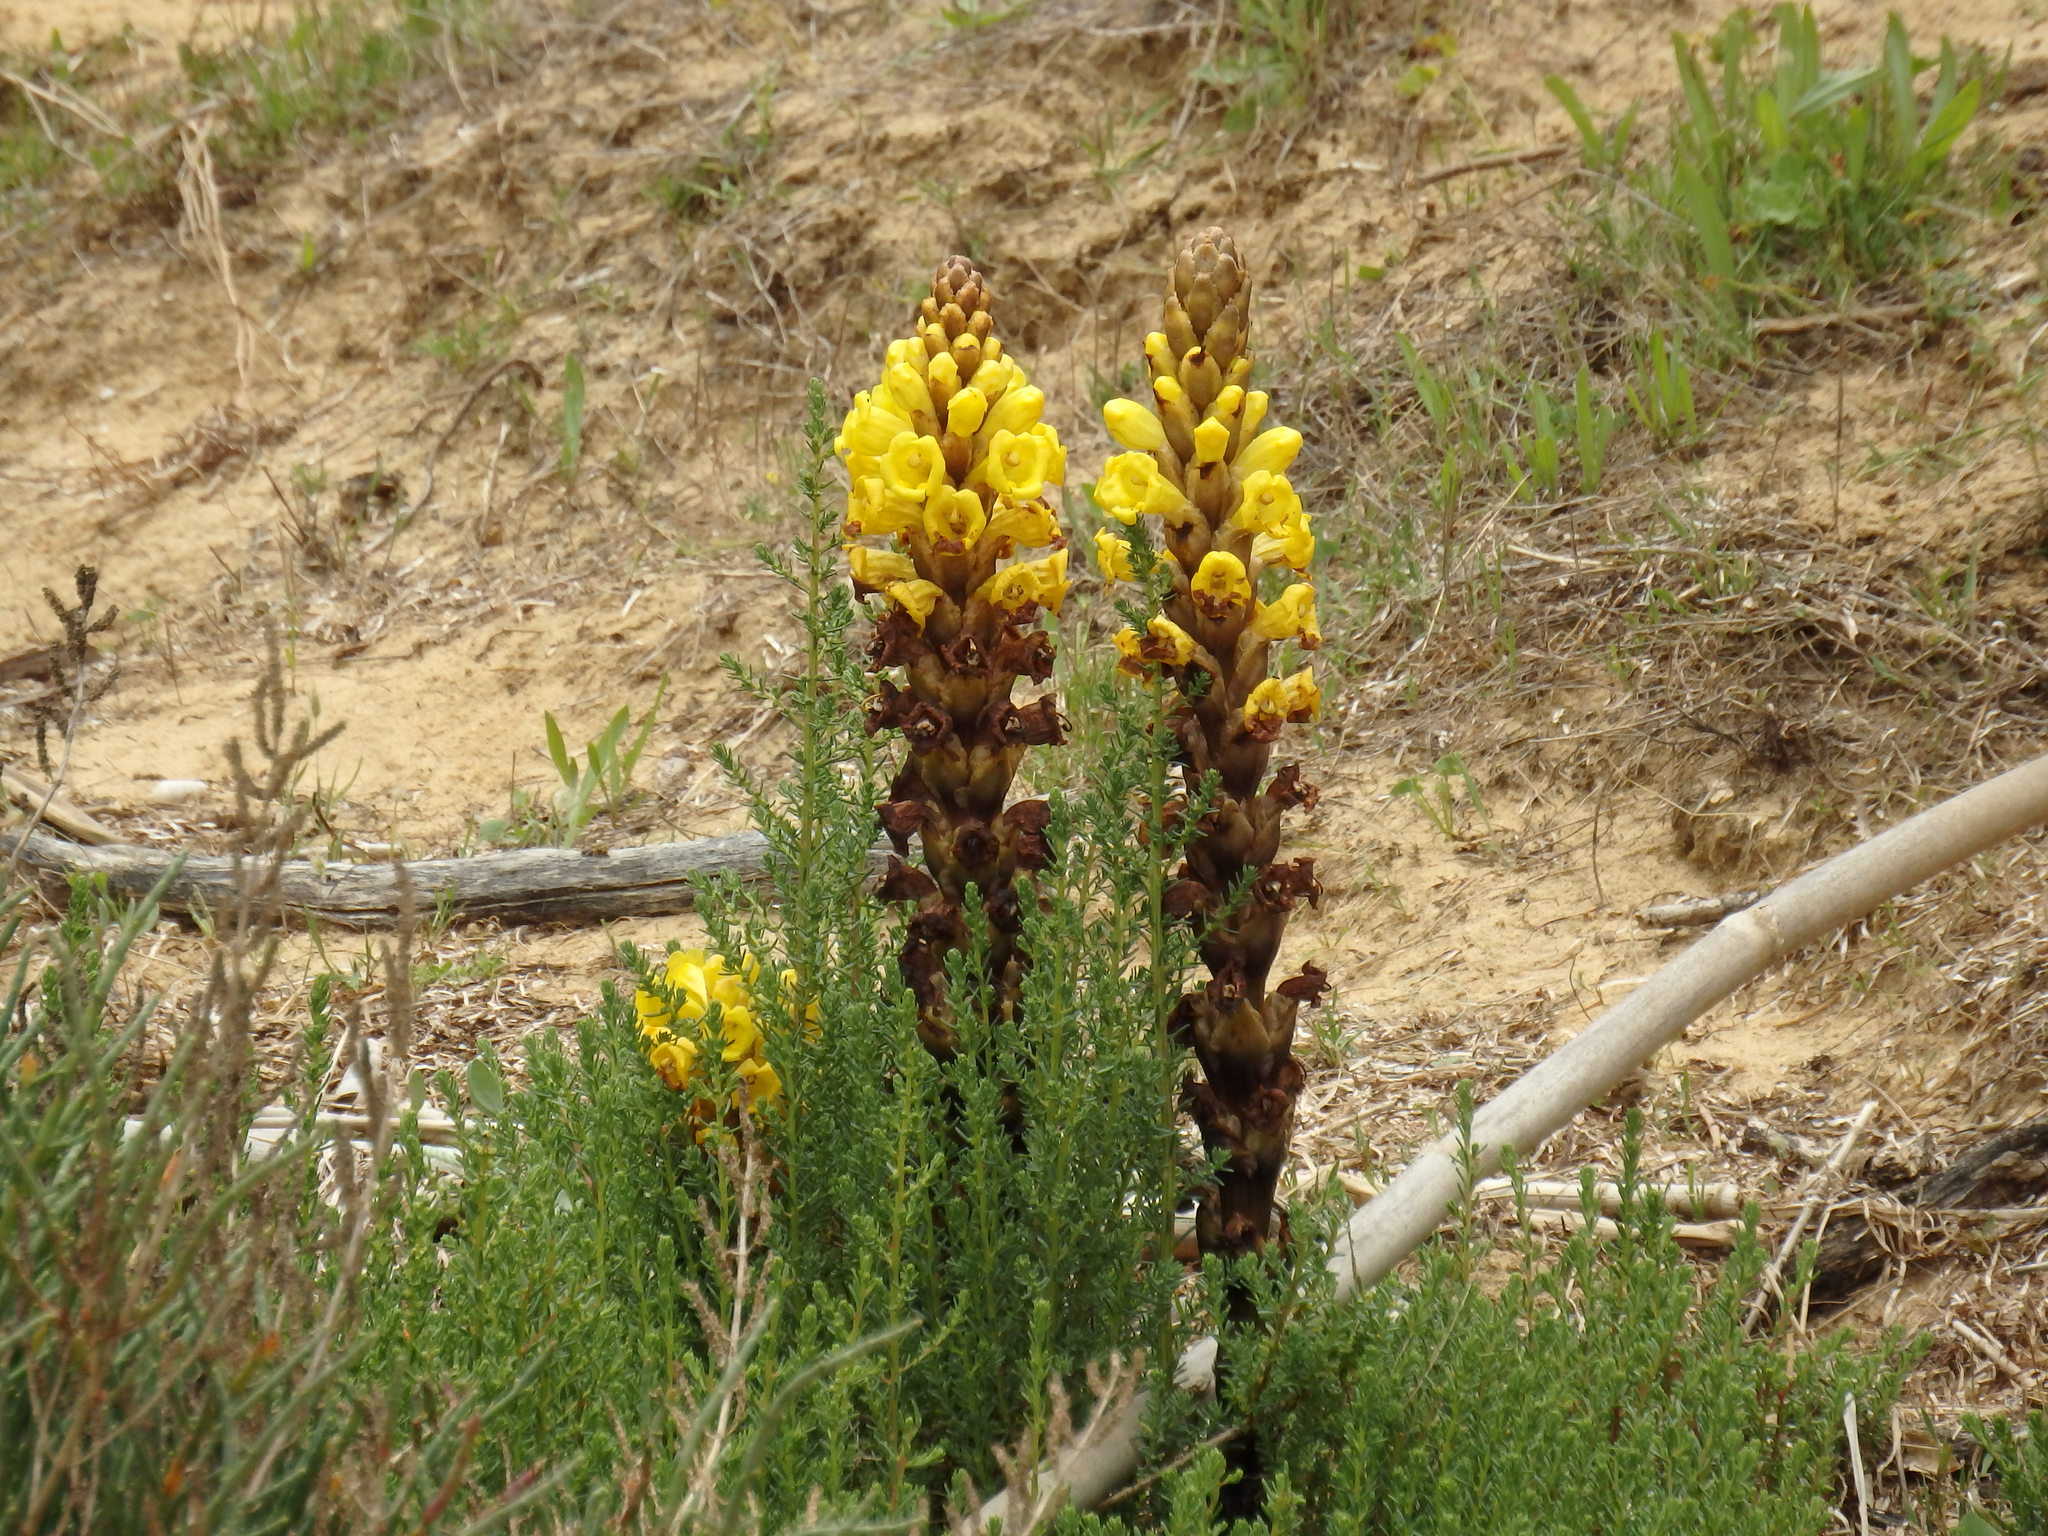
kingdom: Plantae
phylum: Tracheophyta
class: Magnoliopsida
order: Lamiales
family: Orobanchaceae
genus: Cistanche
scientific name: Cistanche phelypaea
